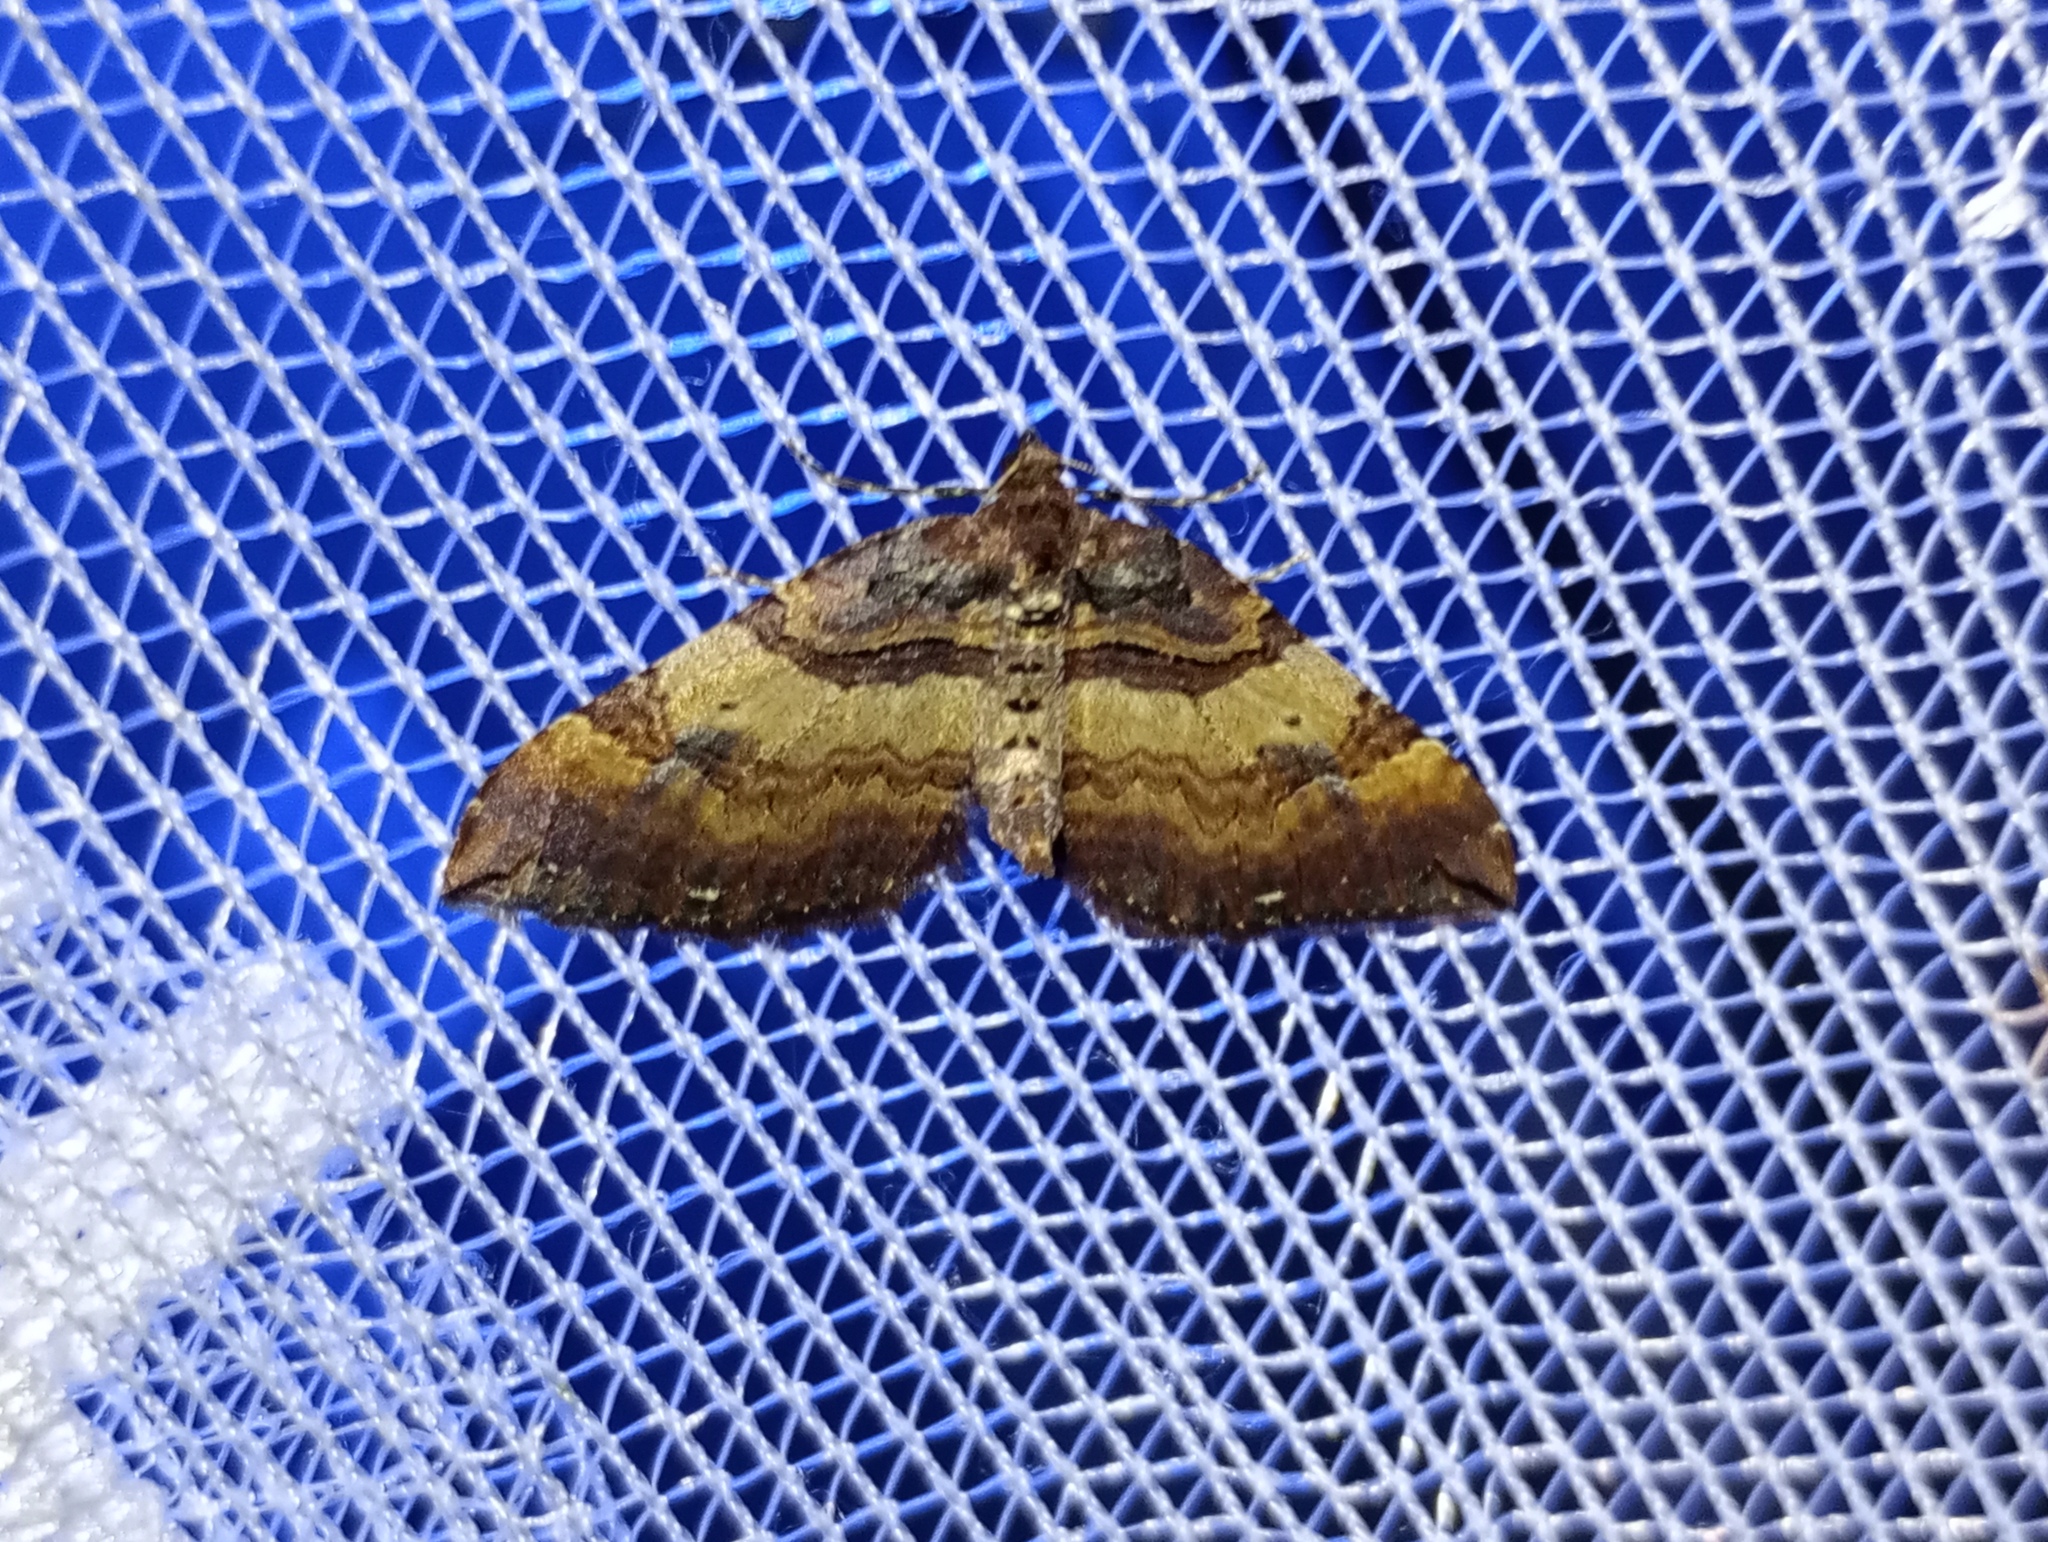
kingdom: Animalia
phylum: Arthropoda
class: Insecta
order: Lepidoptera
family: Geometridae
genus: Anticlea
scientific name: Anticlea badiata
